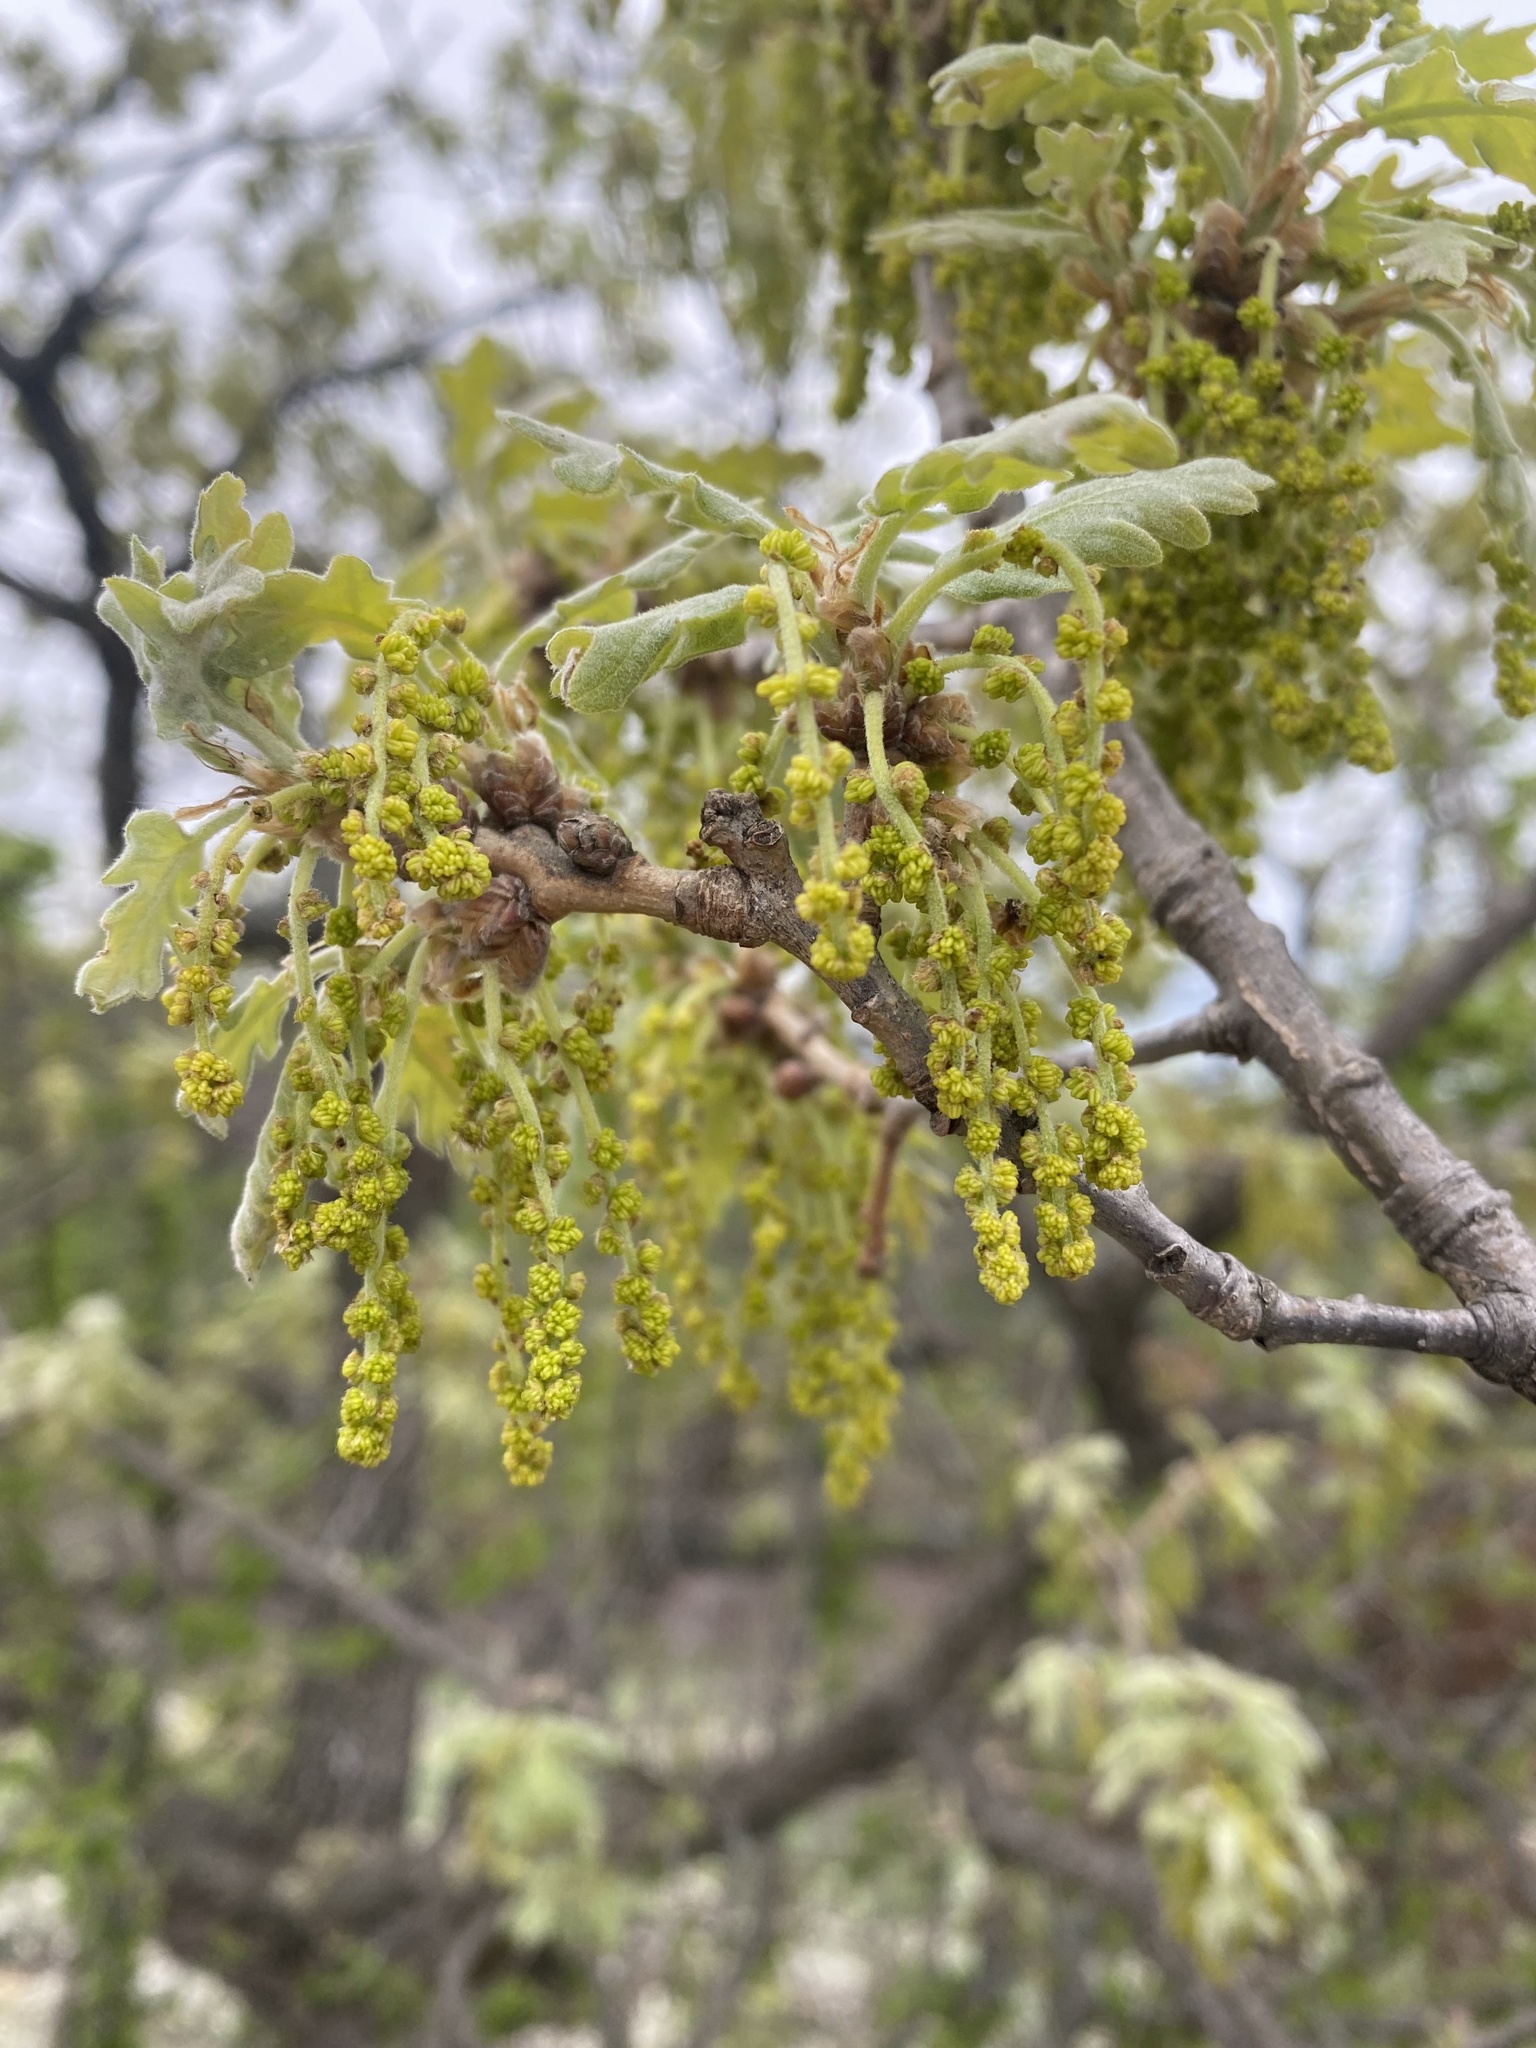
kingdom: Plantae
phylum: Tracheophyta
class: Magnoliopsida
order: Fagales
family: Fagaceae
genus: Quercus
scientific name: Quercus pubescens
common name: Downy oak
